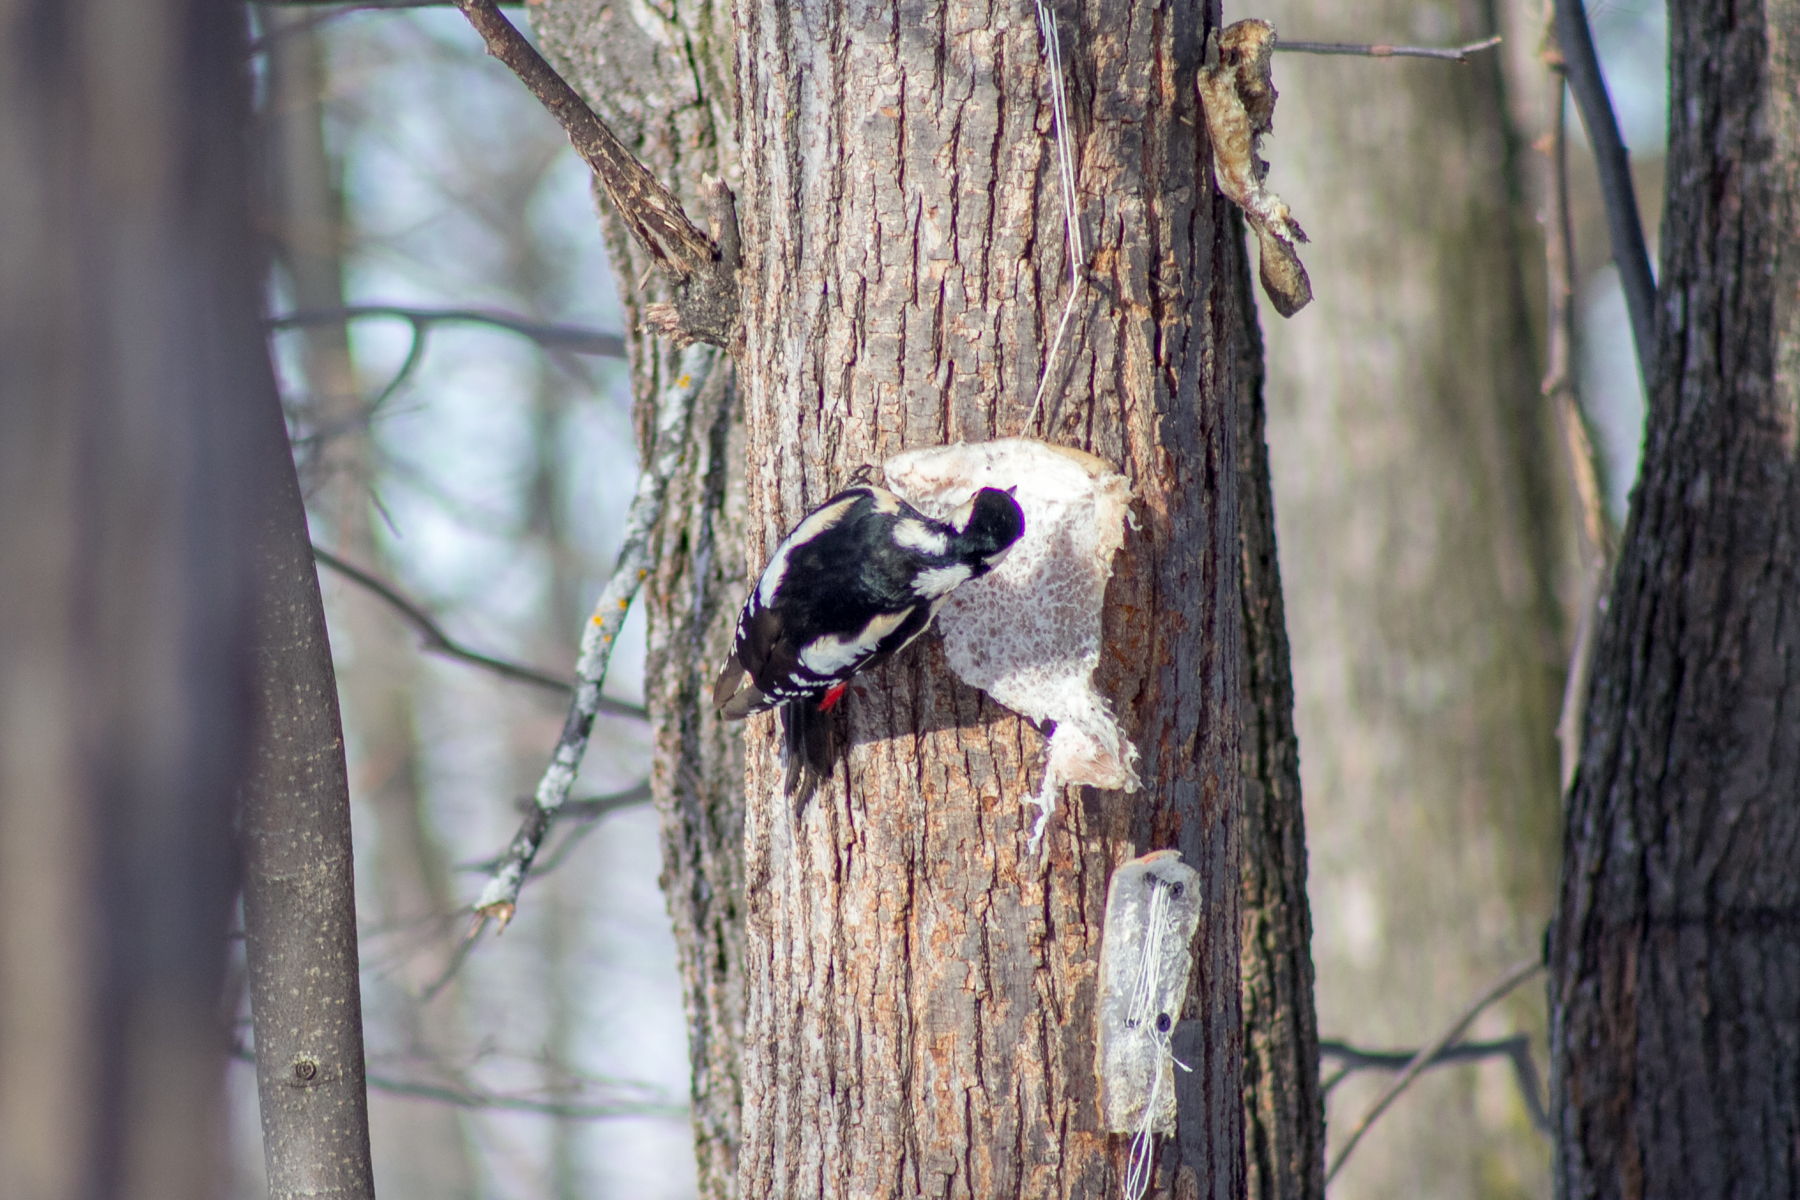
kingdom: Animalia
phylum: Chordata
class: Aves
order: Piciformes
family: Picidae
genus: Dendrocopos
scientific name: Dendrocopos major
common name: Great spotted woodpecker
